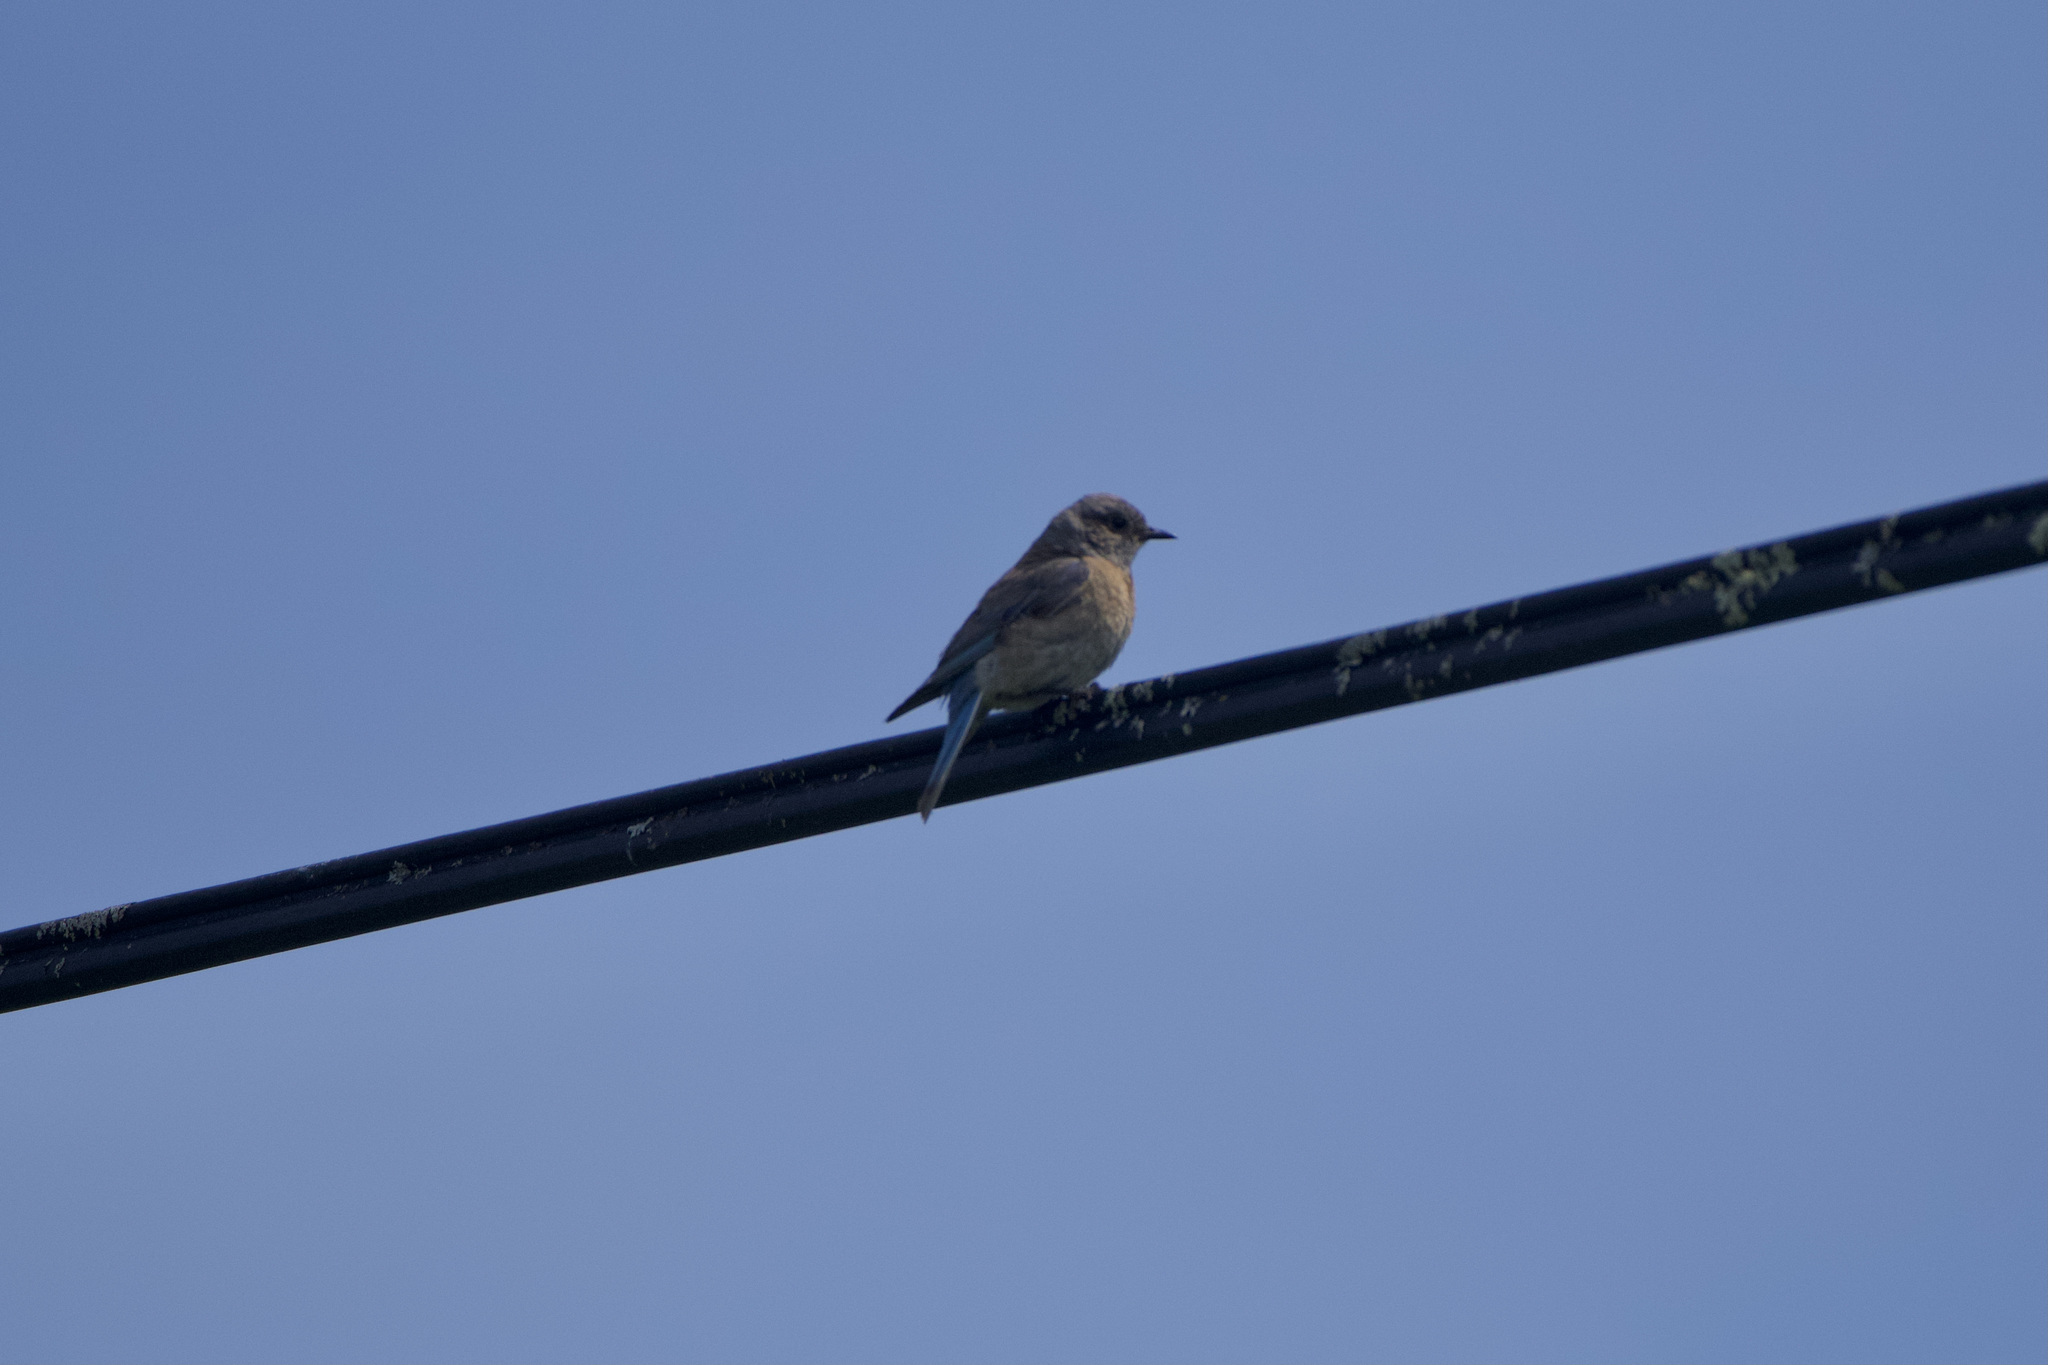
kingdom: Animalia
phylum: Chordata
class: Aves
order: Passeriformes
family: Turdidae
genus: Sialia
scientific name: Sialia mexicana
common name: Western bluebird
